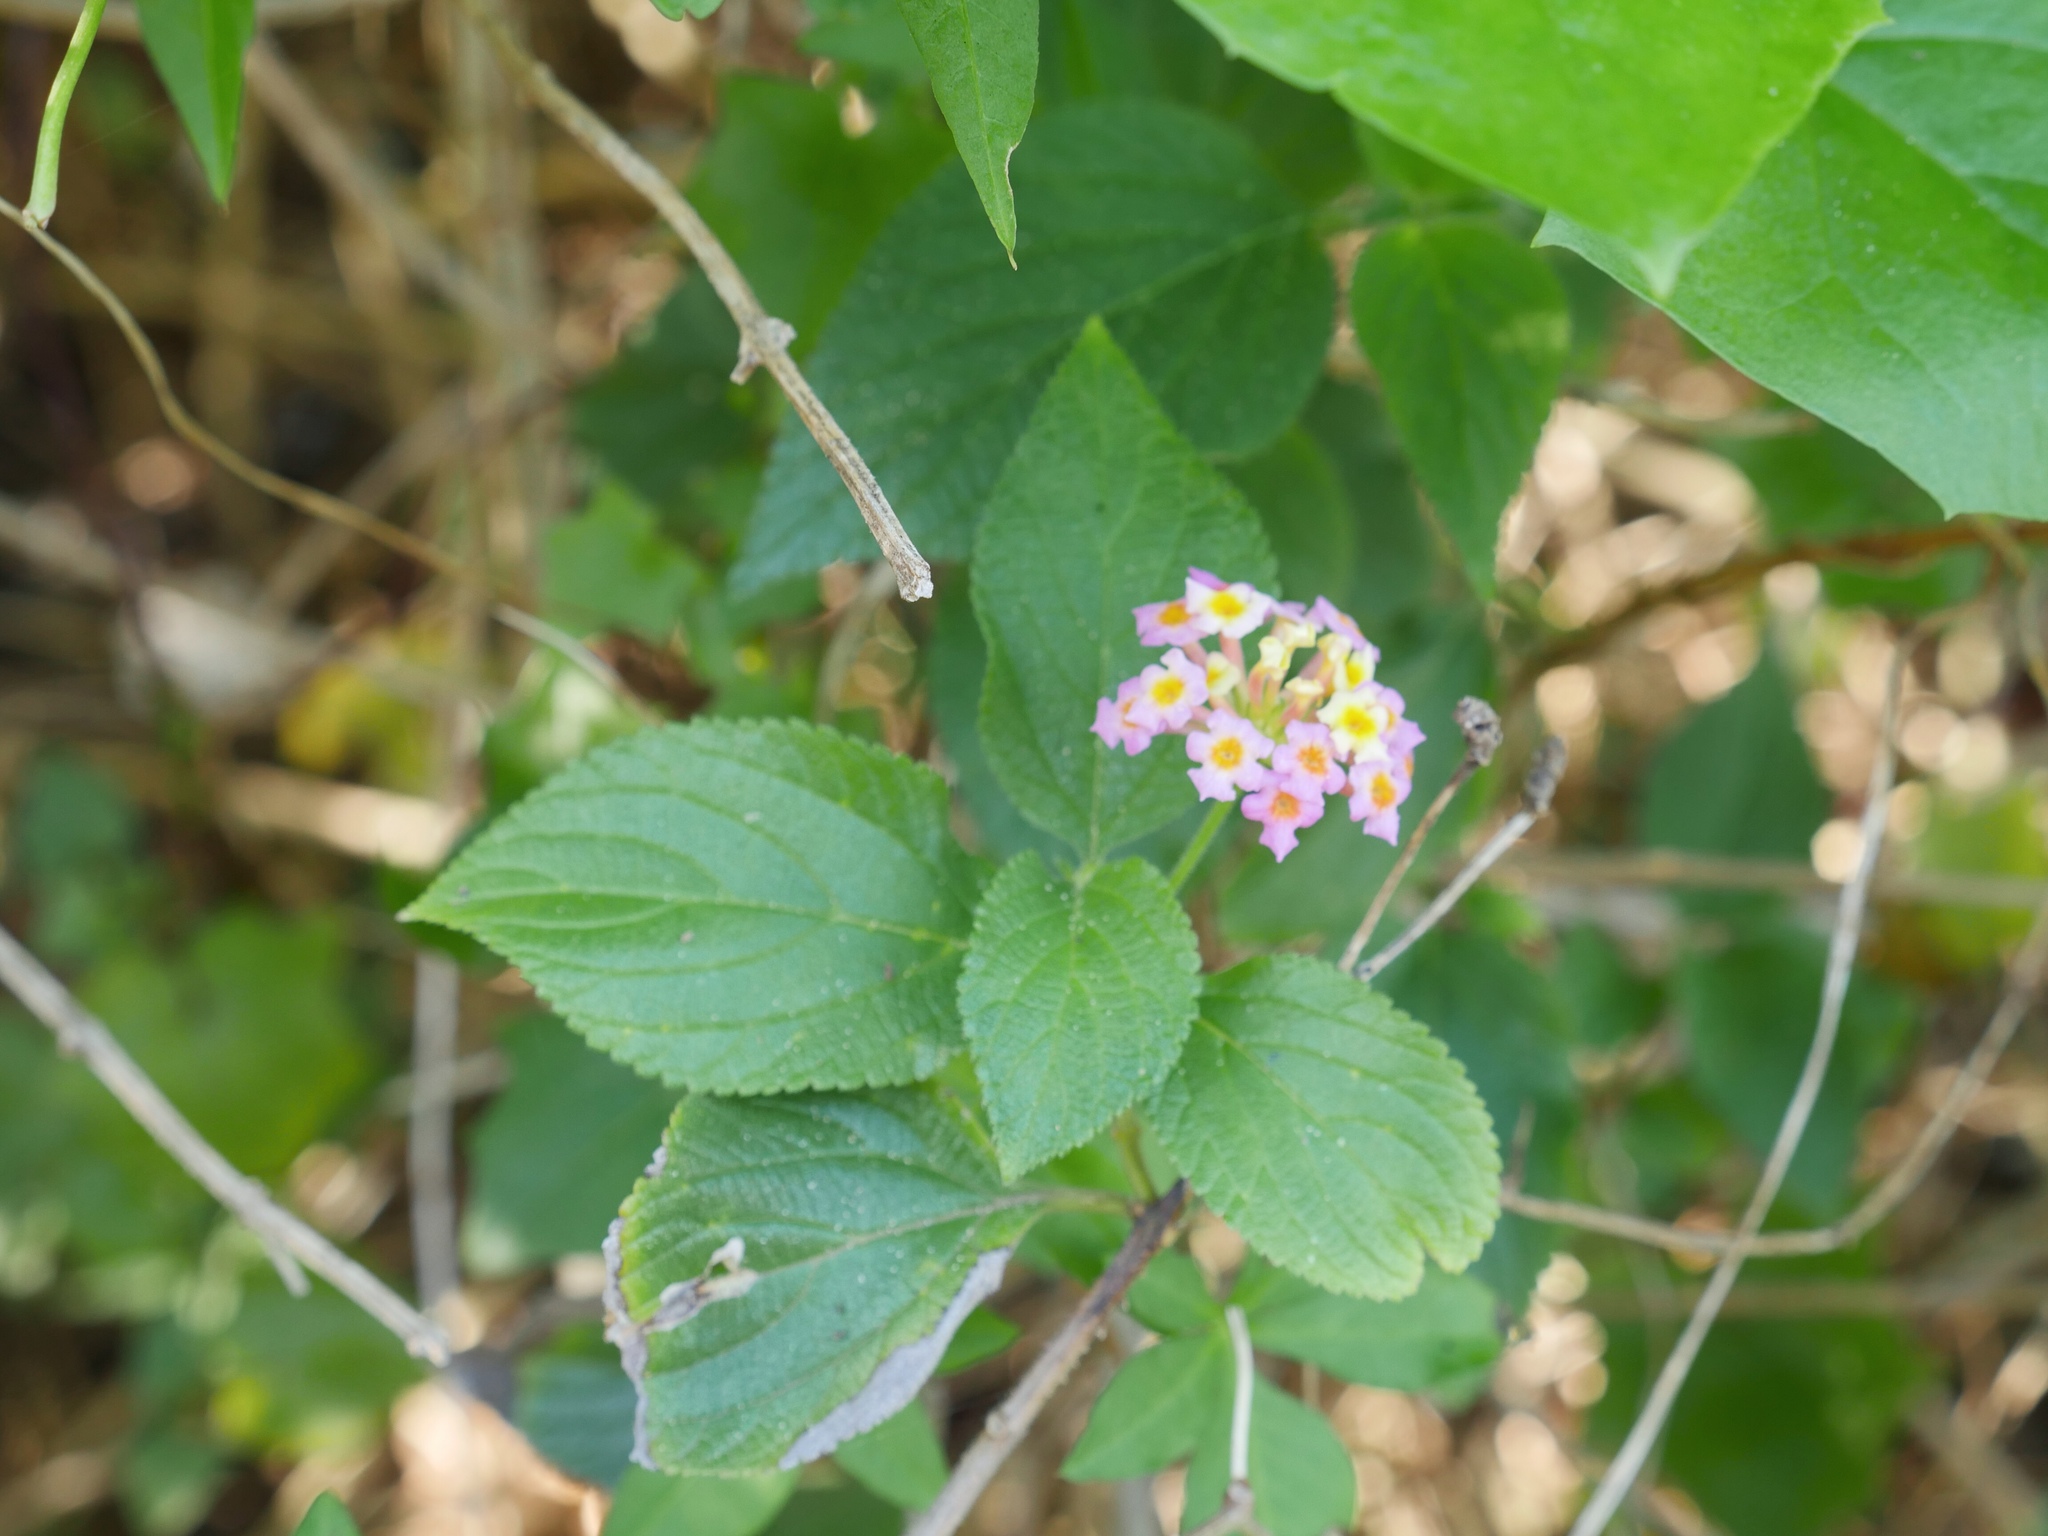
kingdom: Plantae
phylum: Tracheophyta
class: Magnoliopsida
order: Lamiales
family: Verbenaceae
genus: Lantana
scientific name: Lantana camara
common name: Lantana
